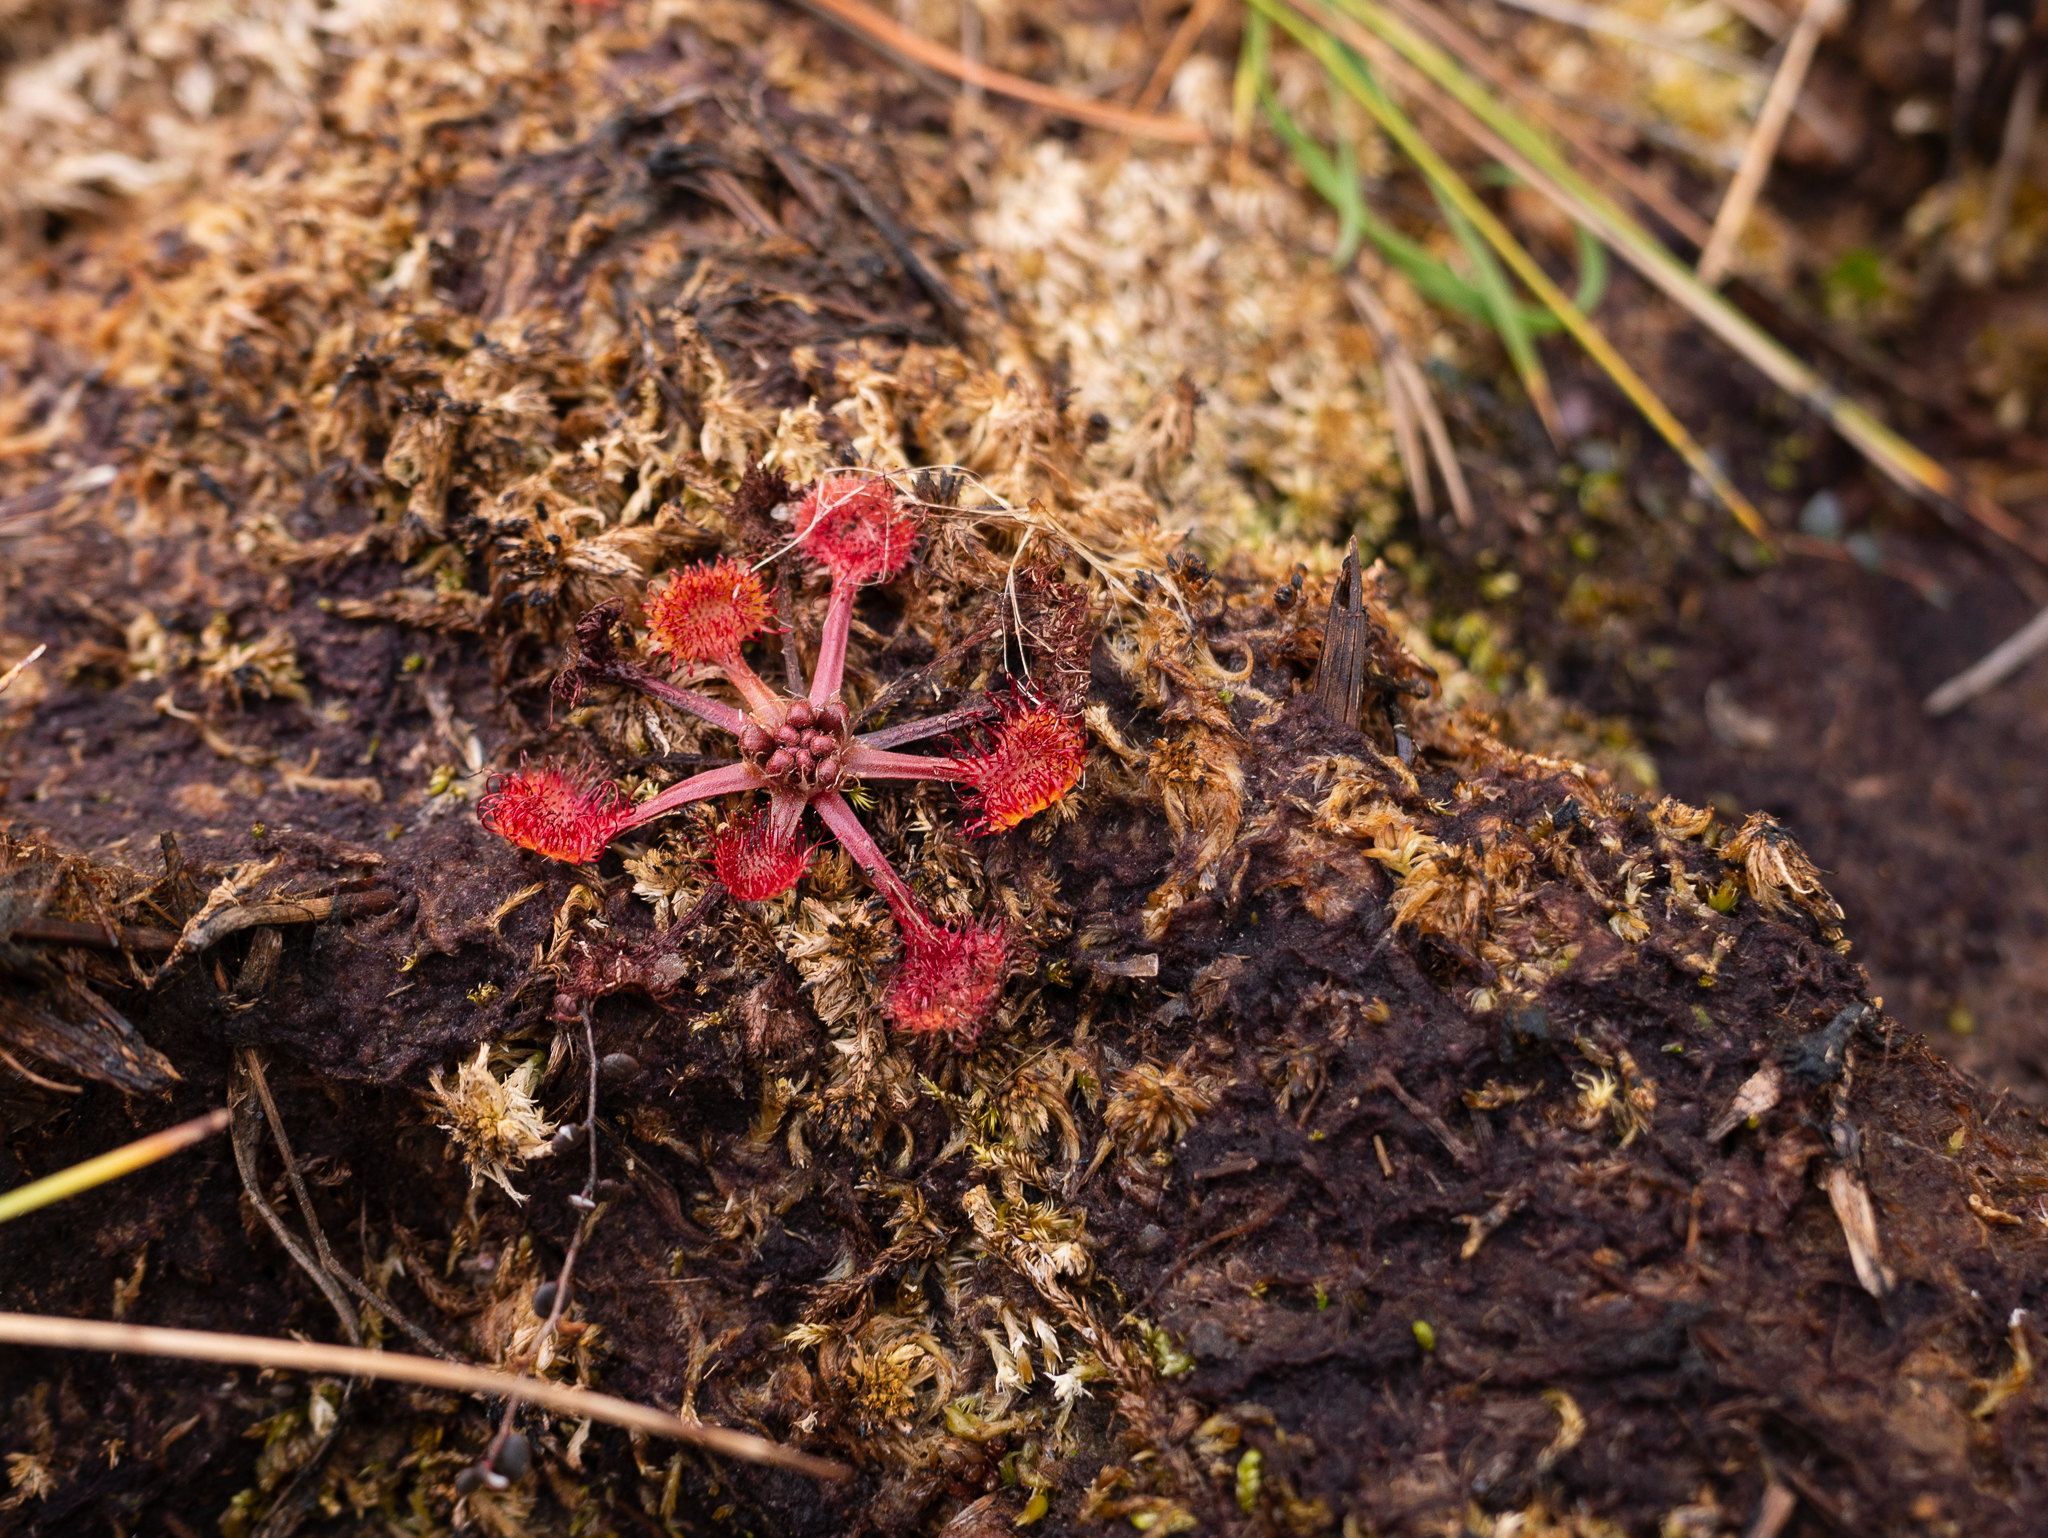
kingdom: Plantae
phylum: Tracheophyta
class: Magnoliopsida
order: Caryophyllales
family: Droseraceae
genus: Drosera
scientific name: Drosera rotundifolia
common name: Round-leaved sundew
